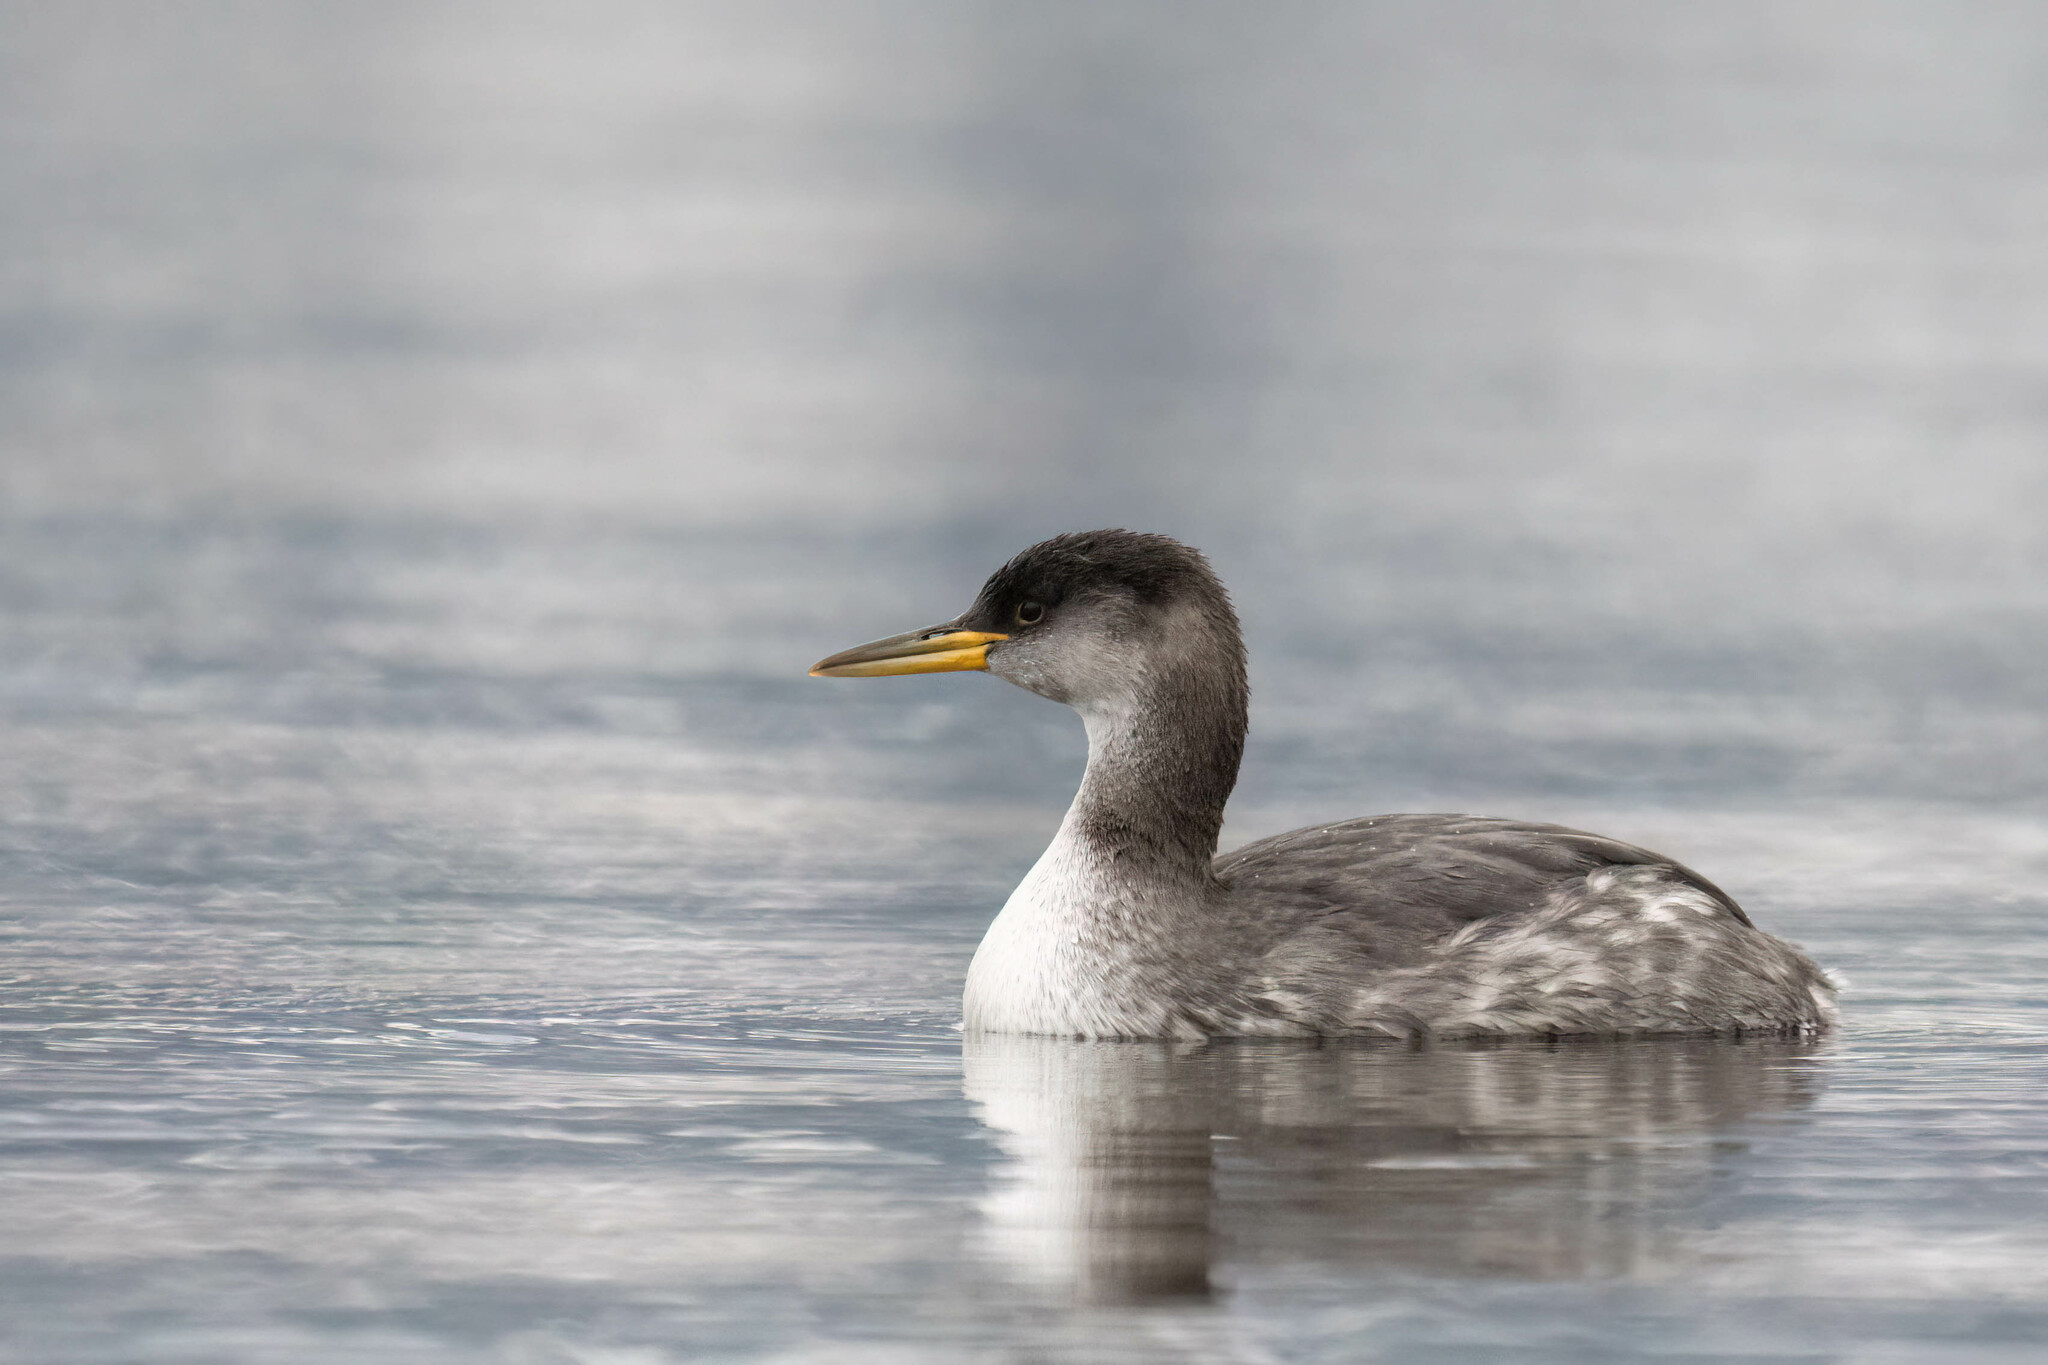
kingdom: Animalia
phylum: Chordata
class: Aves
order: Podicipediformes
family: Podicipedidae
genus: Podiceps
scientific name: Podiceps grisegena
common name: Red-necked grebe
